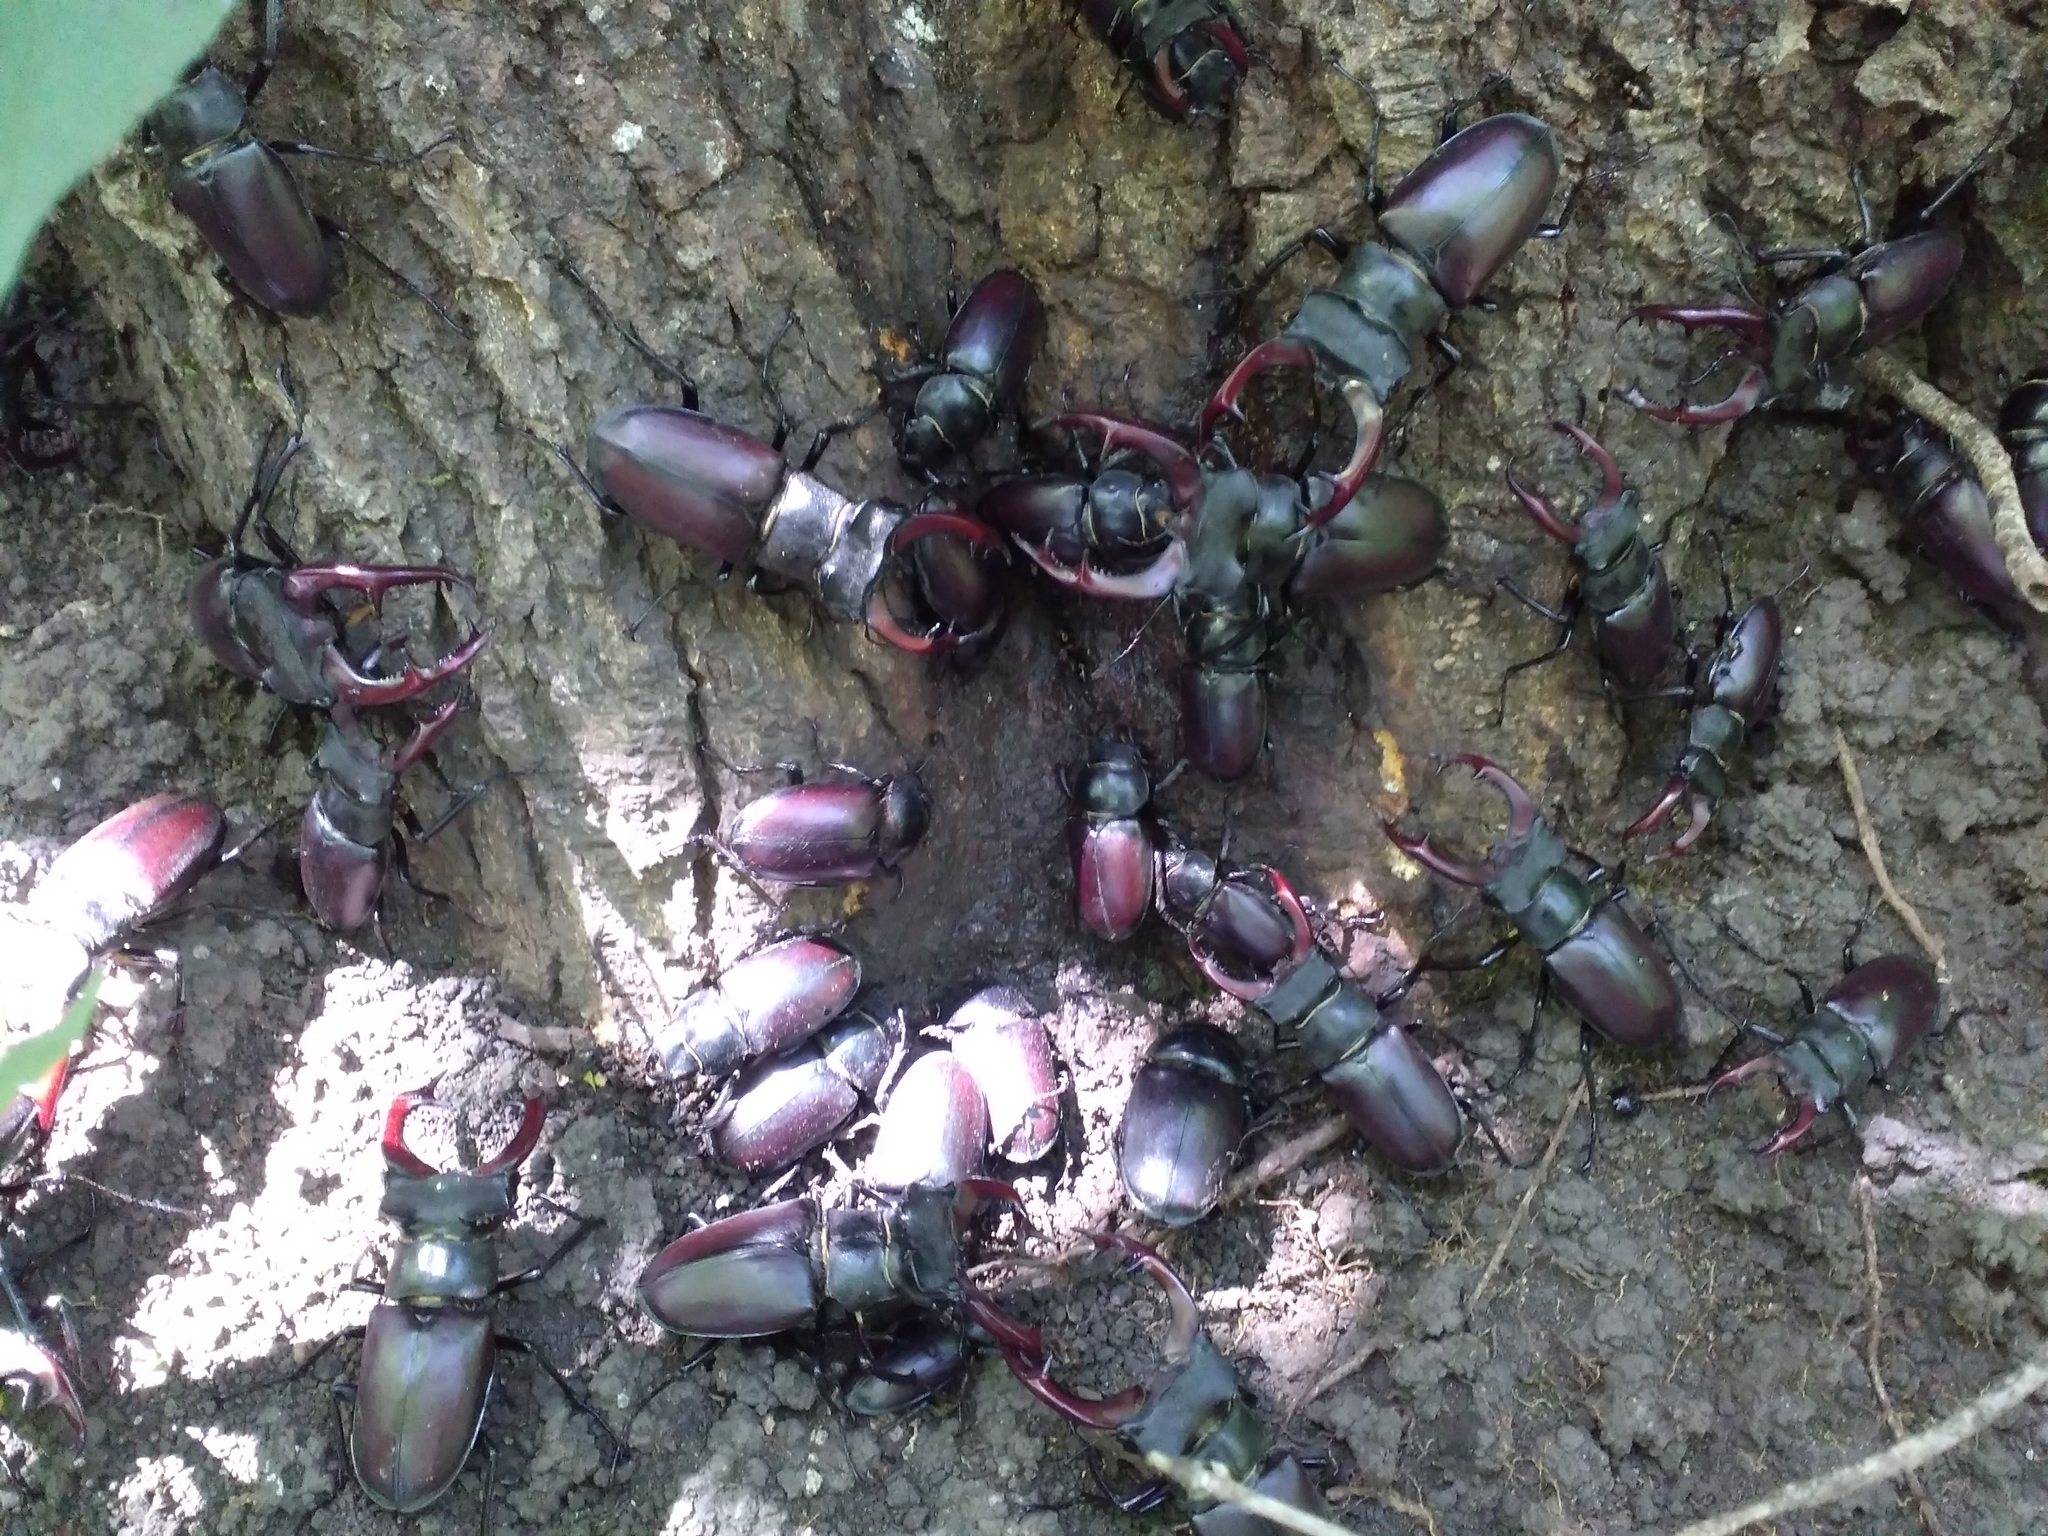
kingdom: Animalia
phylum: Arthropoda
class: Insecta
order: Coleoptera
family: Lucanidae
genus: Lucanus
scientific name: Lucanus cervus
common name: Stag beetle
